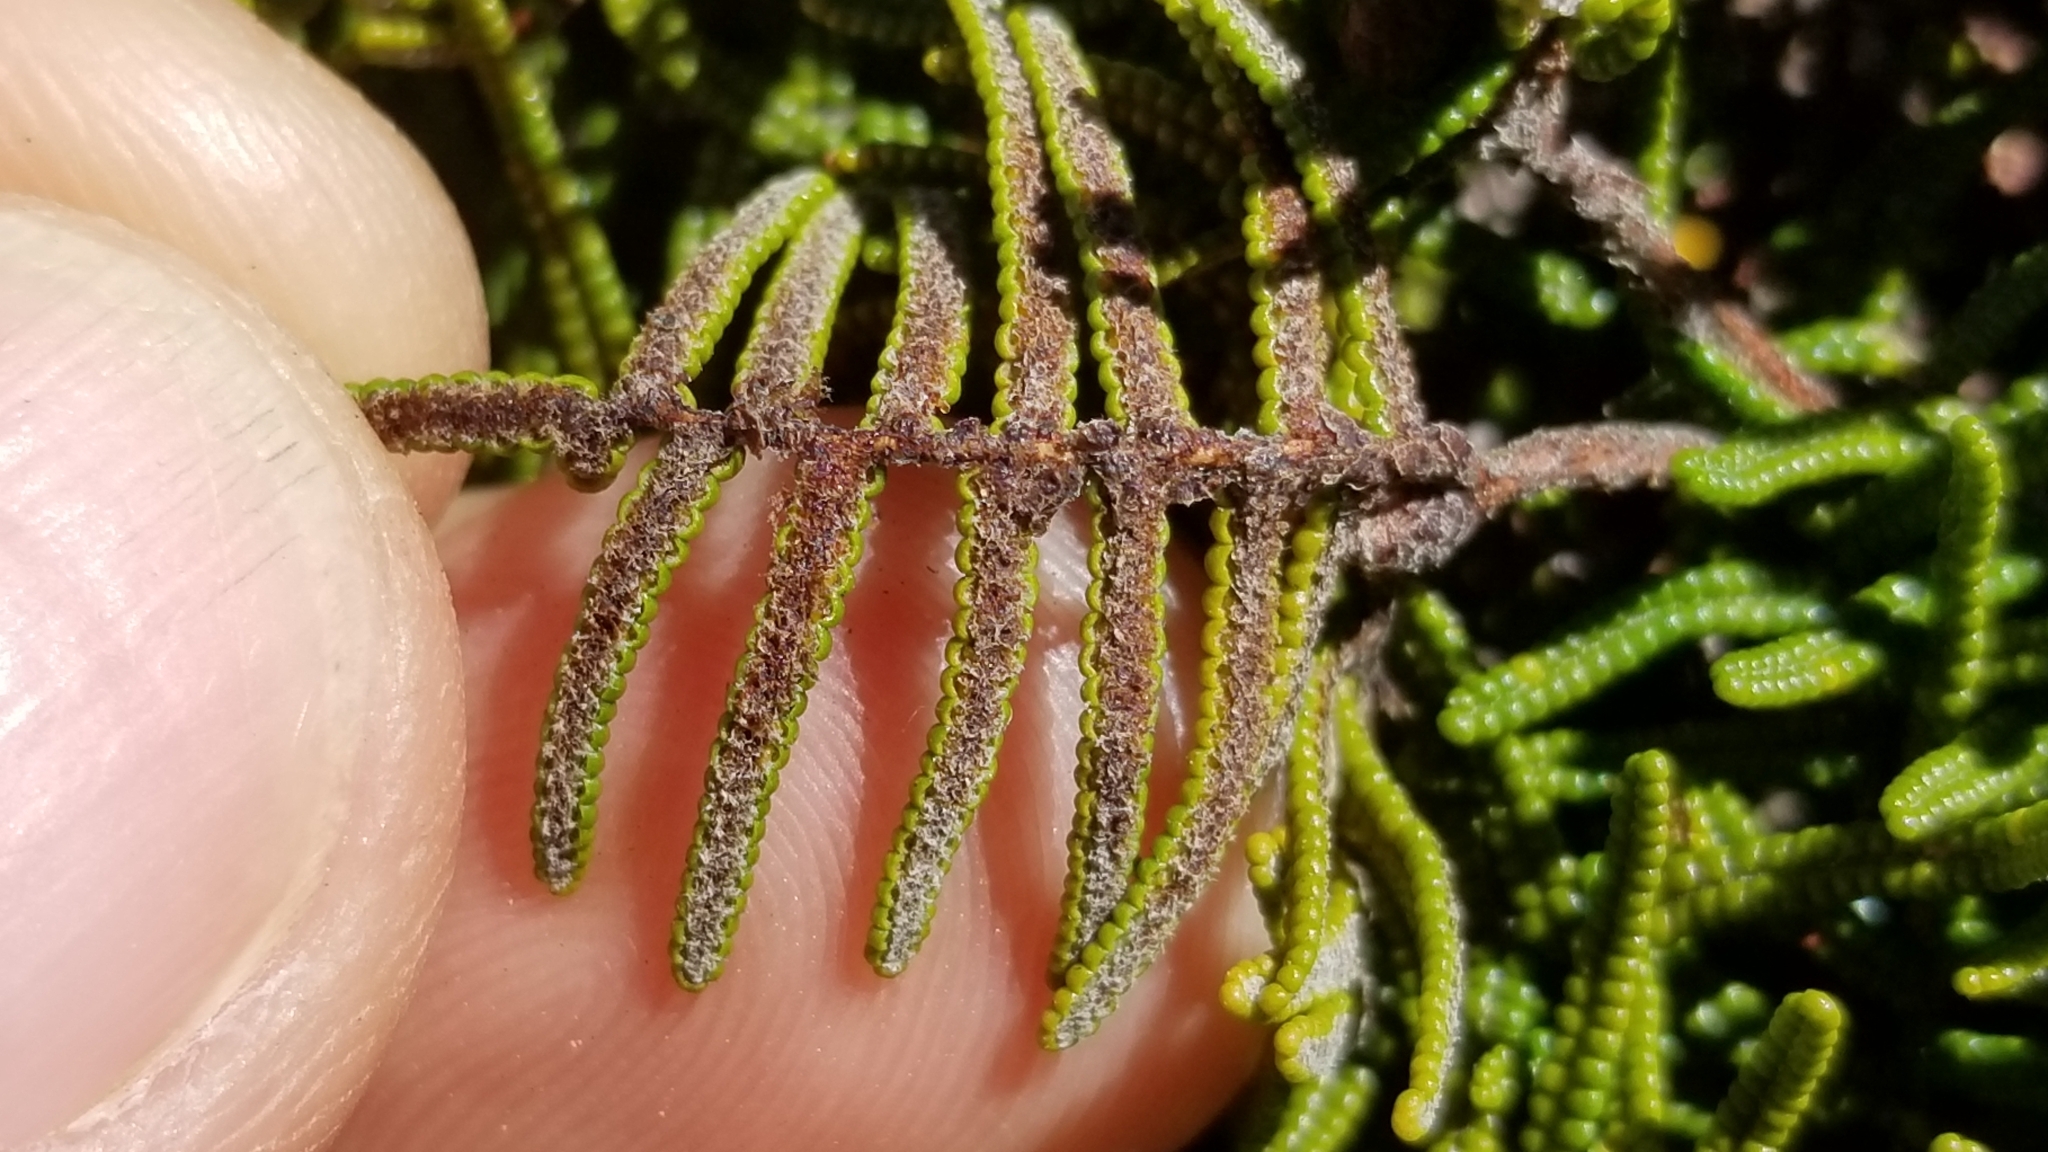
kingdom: Plantae
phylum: Tracheophyta
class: Polypodiopsida
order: Gleicheniales
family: Gleicheniaceae
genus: Gleichenia
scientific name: Gleichenia alpina
